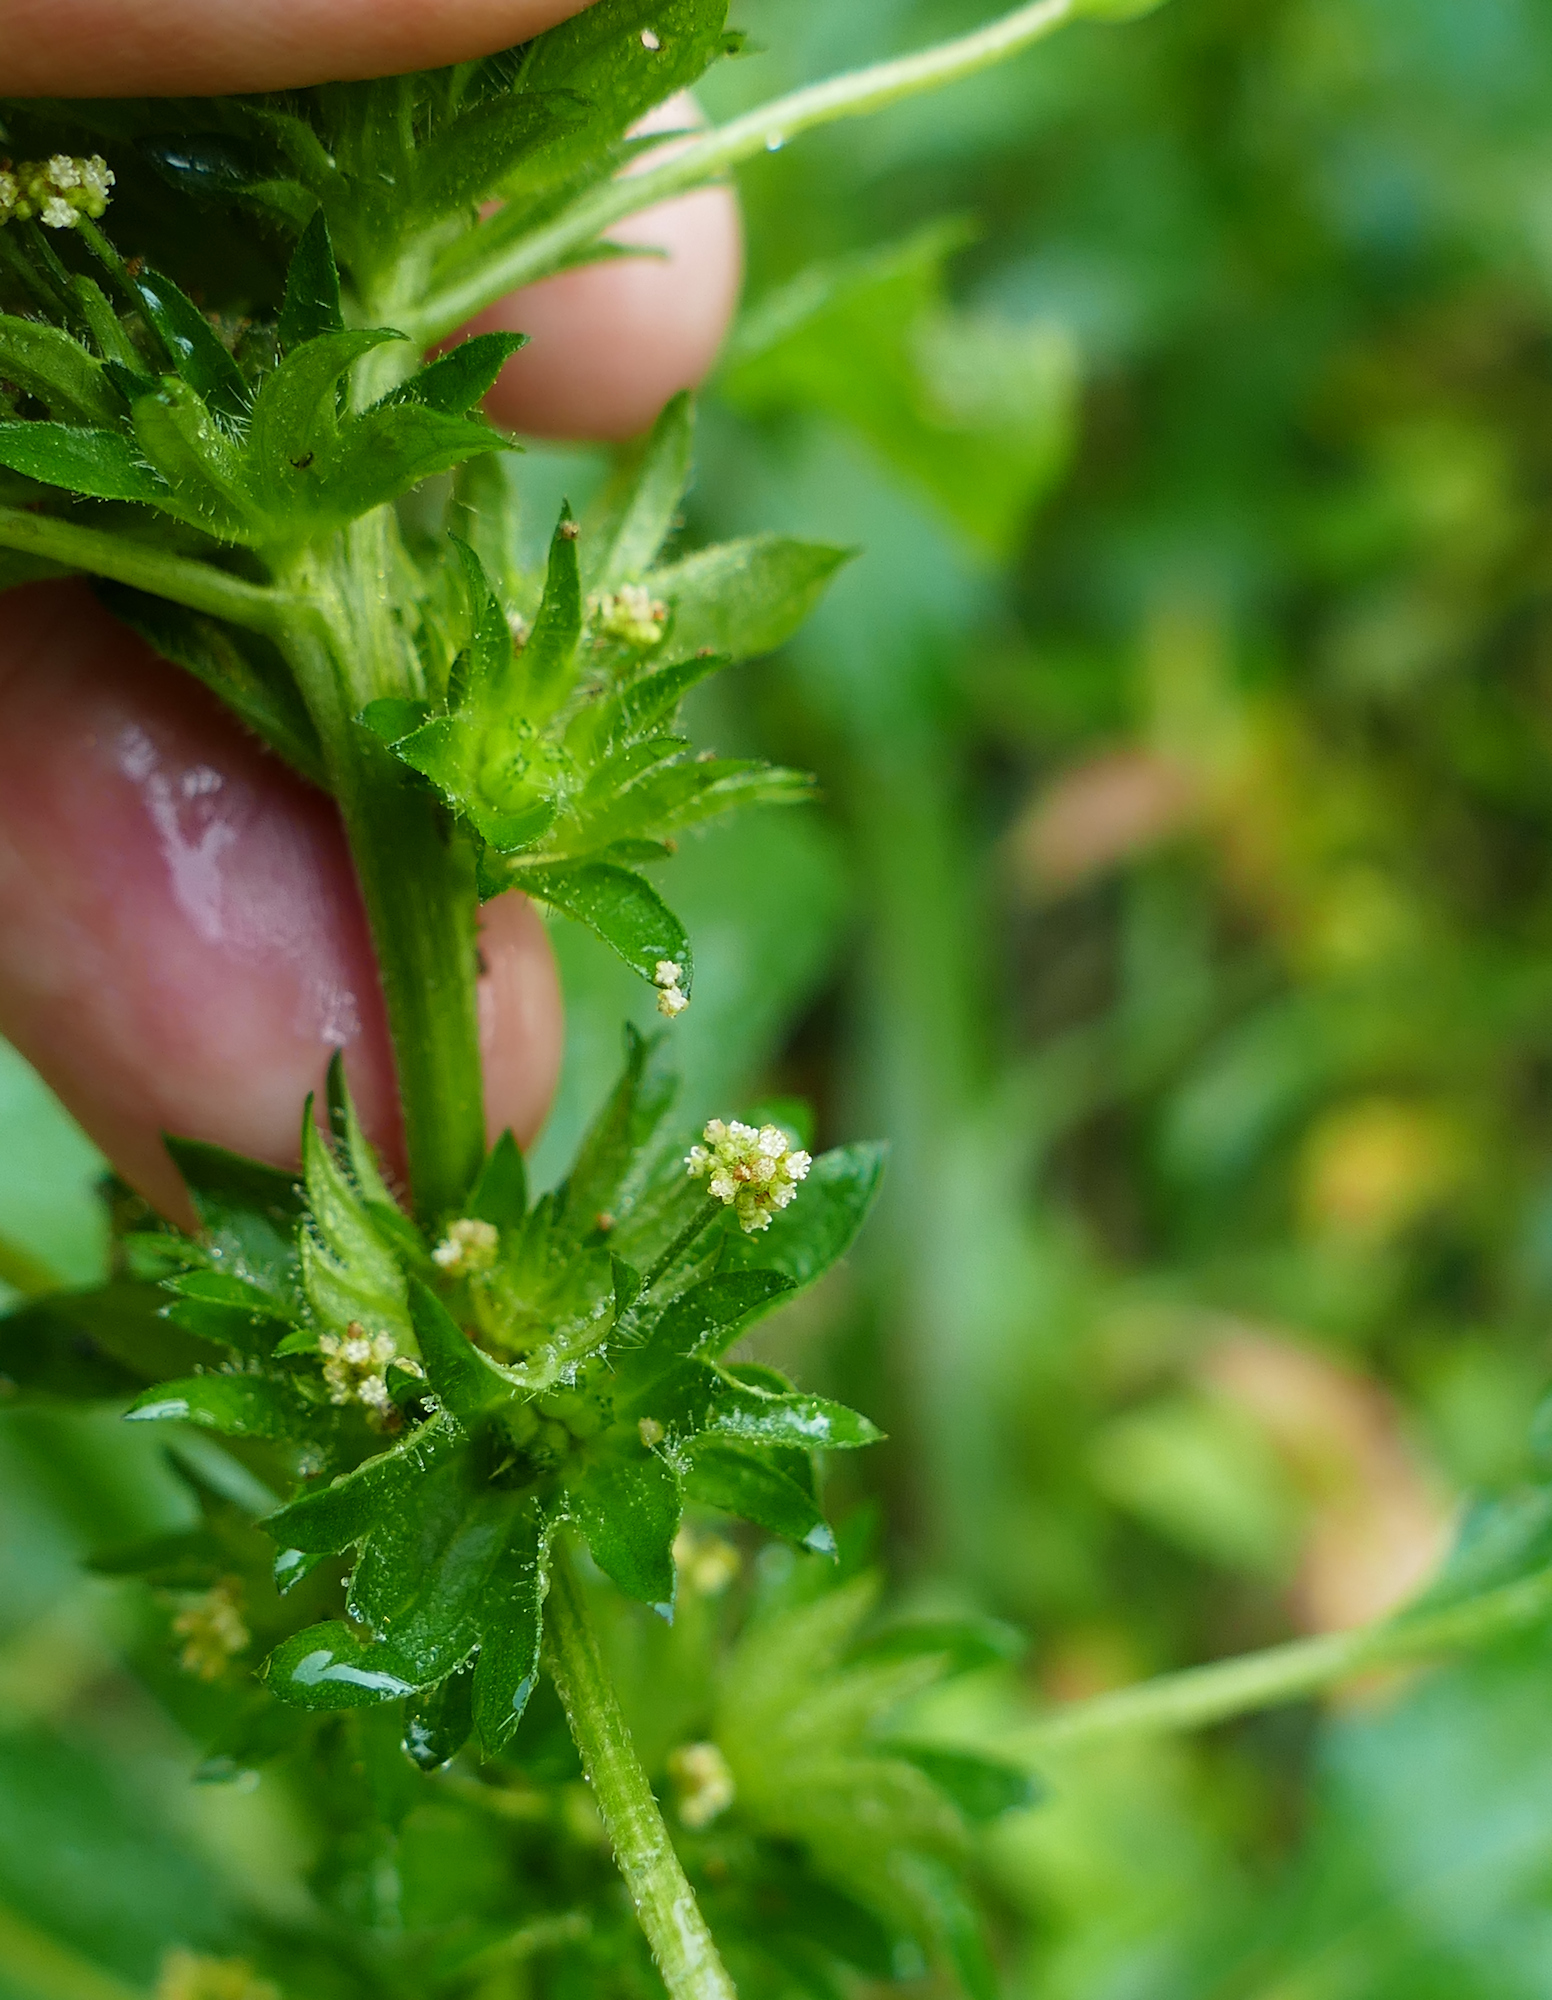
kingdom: Plantae
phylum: Tracheophyta
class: Magnoliopsida
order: Malpighiales
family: Euphorbiaceae
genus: Acalypha
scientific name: Acalypha rhomboidea
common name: Rhombic copperleaf
